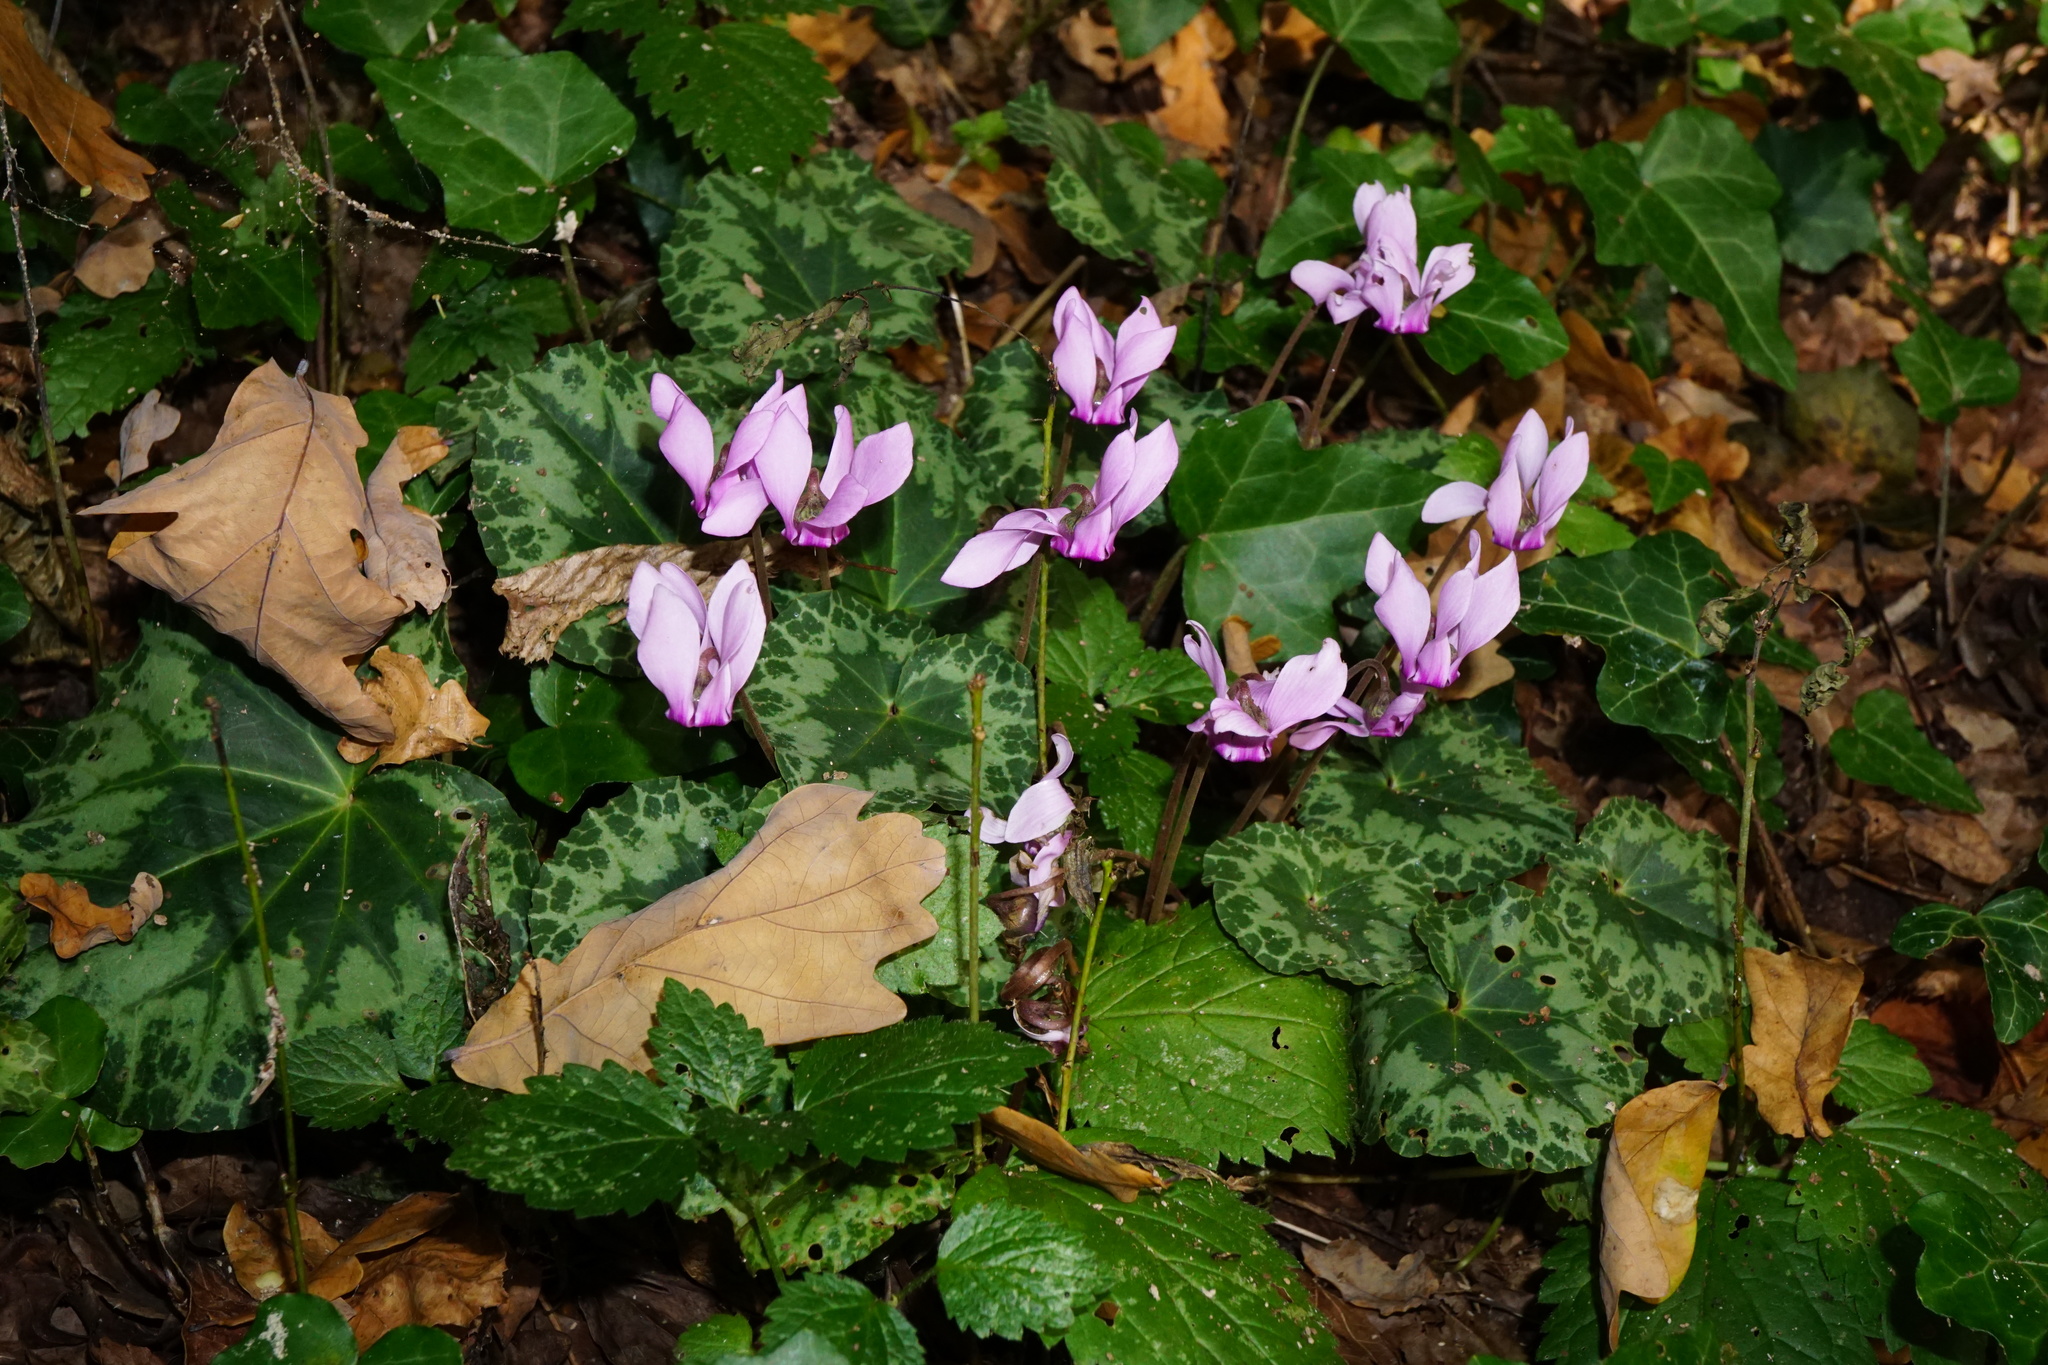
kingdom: Plantae
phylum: Tracheophyta
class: Magnoliopsida
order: Ericales
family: Primulaceae
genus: Cyclamen
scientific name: Cyclamen purpurascens
